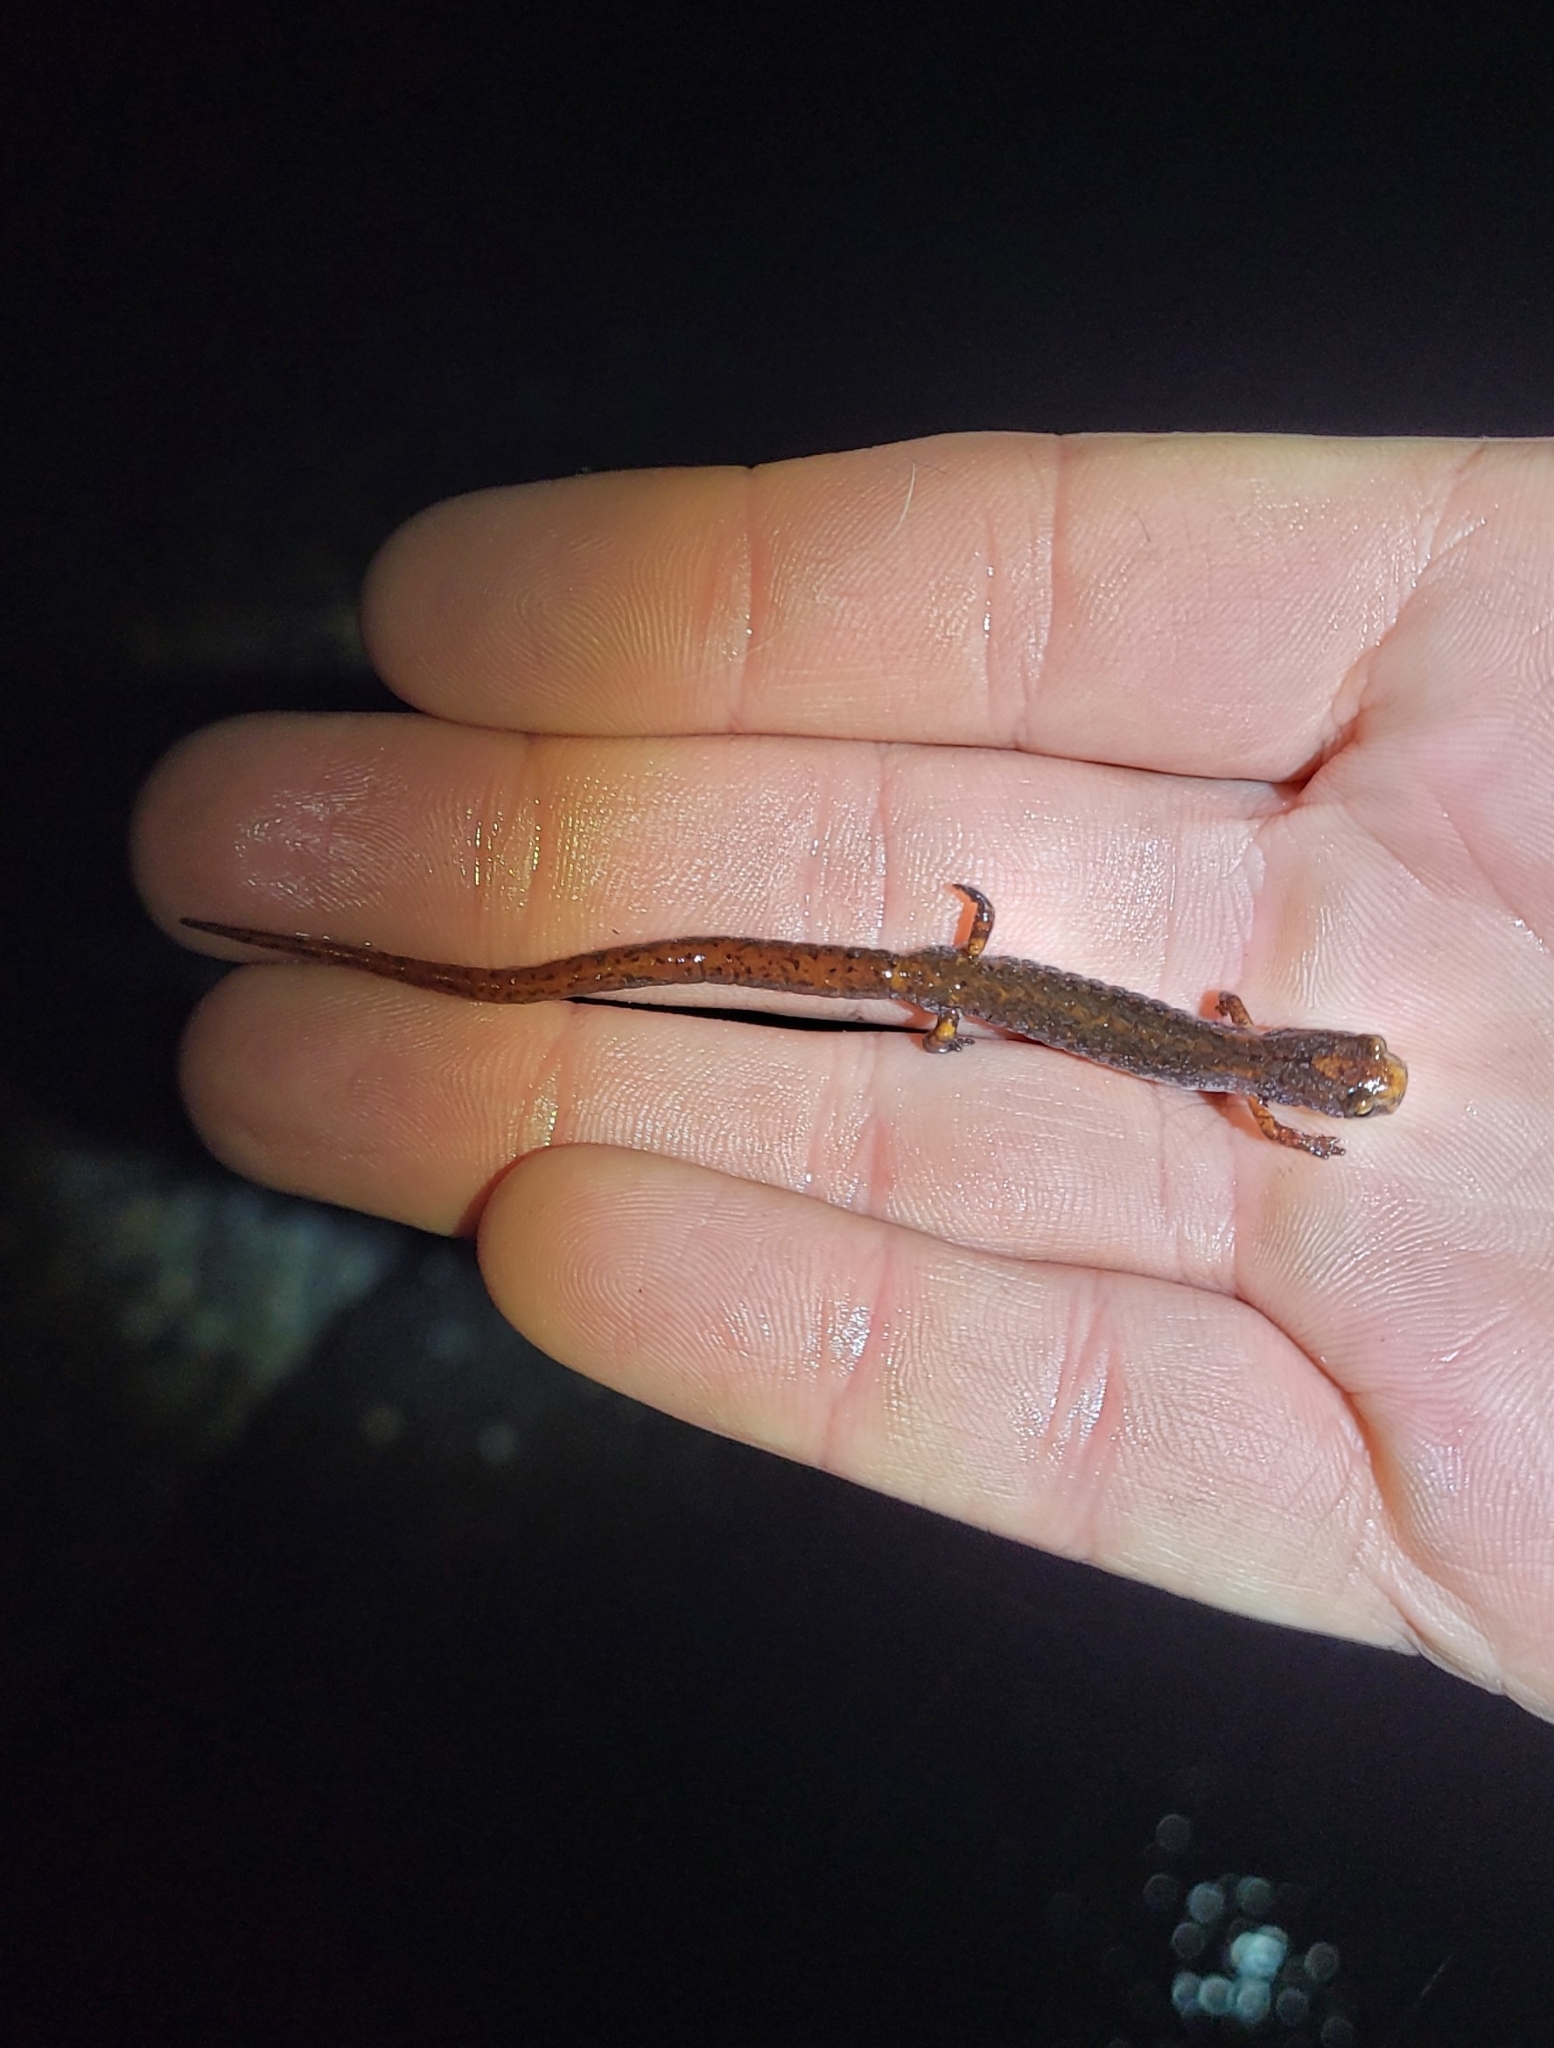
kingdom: Animalia
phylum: Chordata
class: Amphibia
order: Caudata
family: Plethodontidae
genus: Hemidactylium
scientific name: Hemidactylium scutatum
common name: Four-toed salamander
